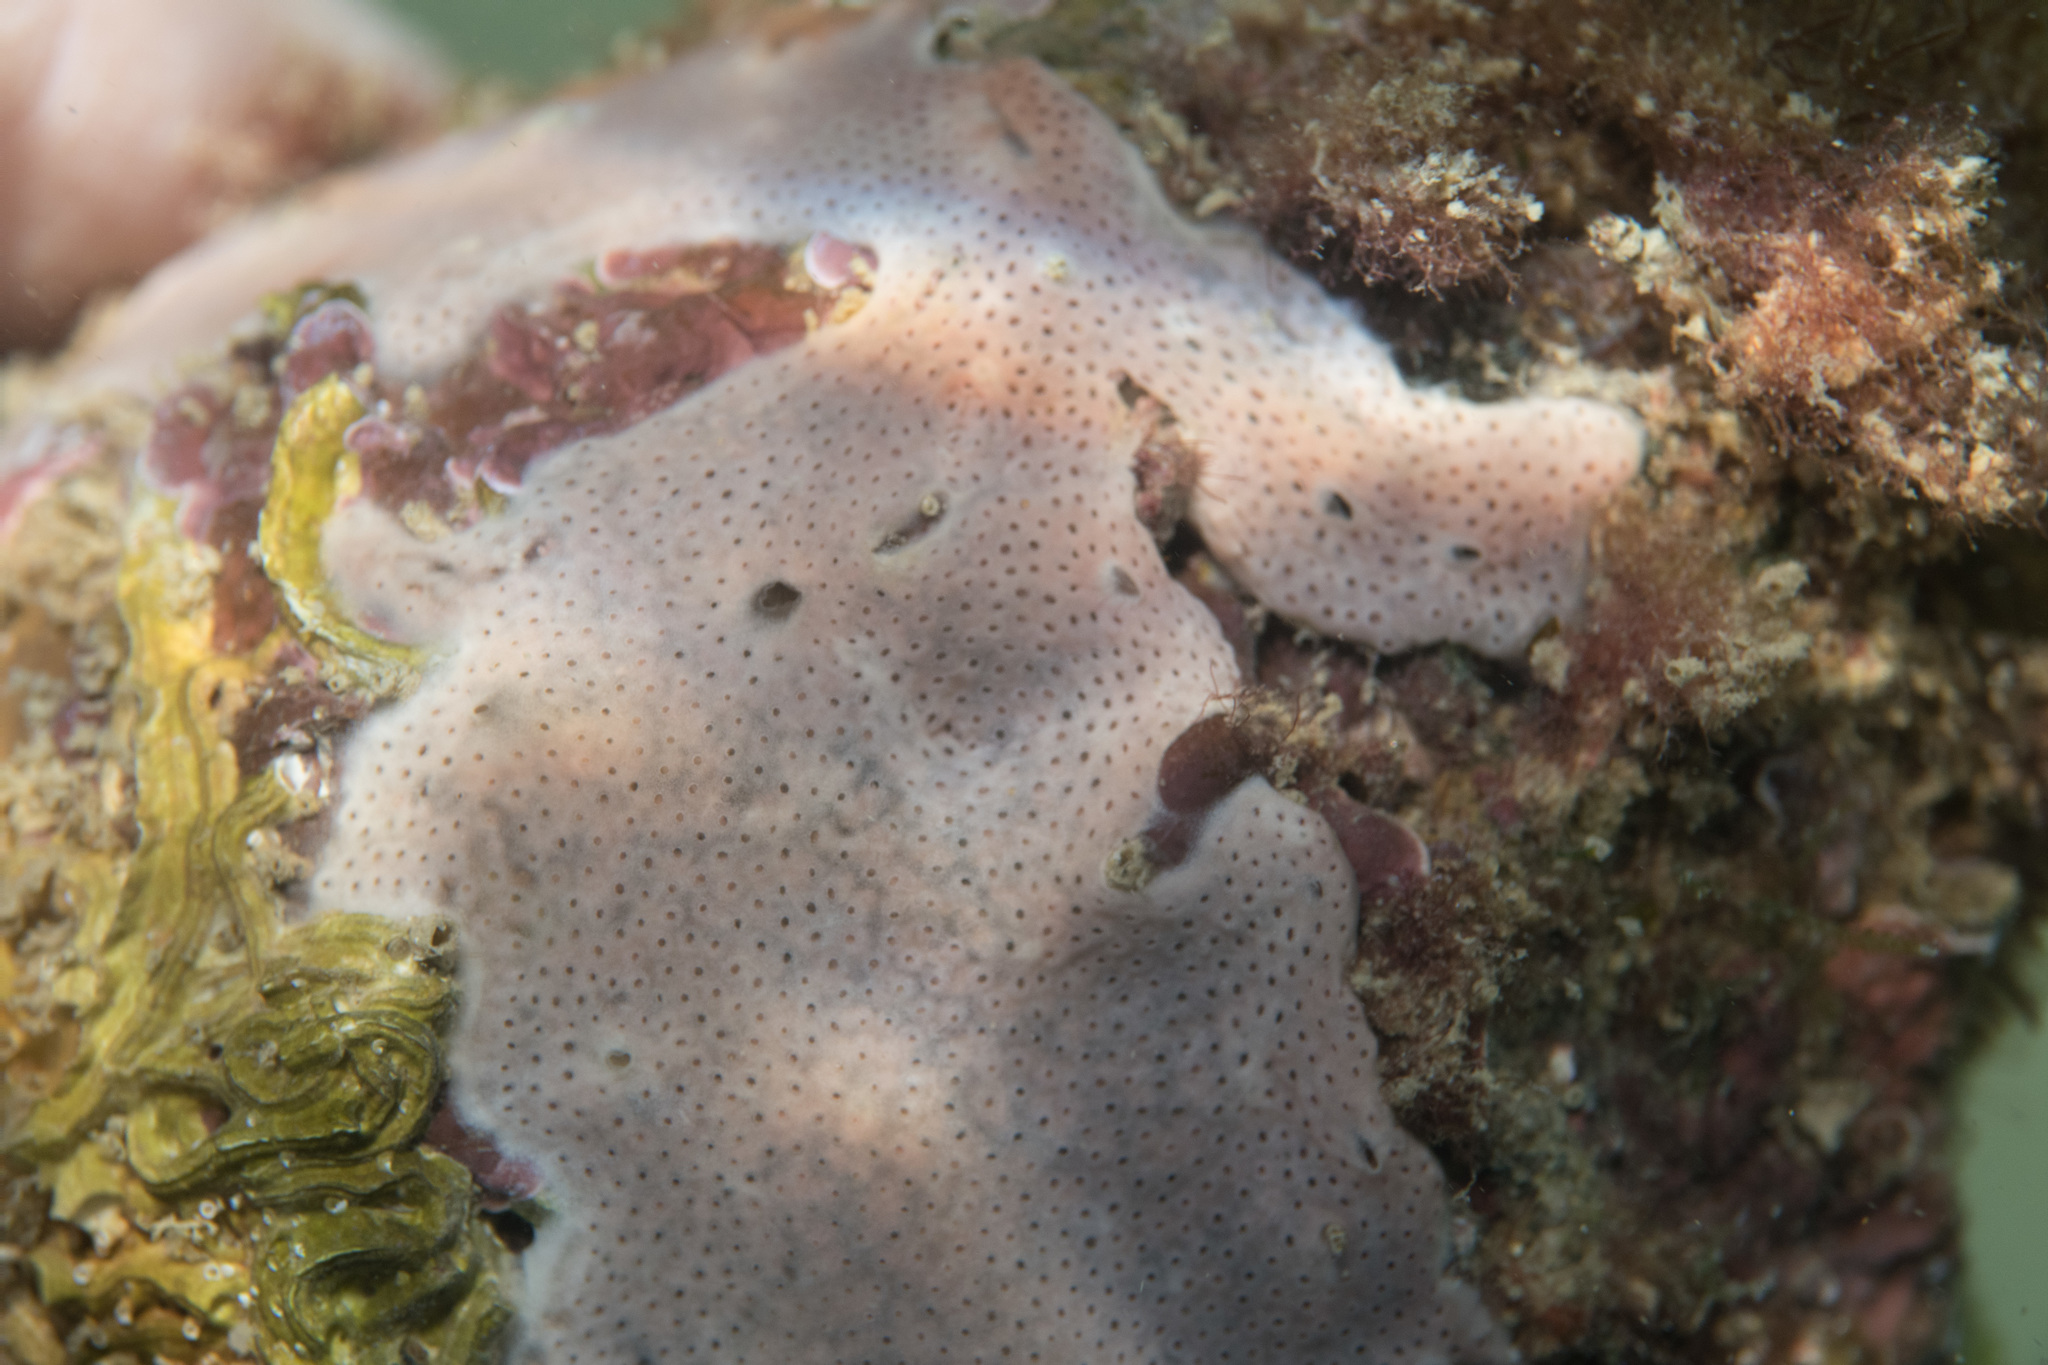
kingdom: Animalia
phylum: Chordata
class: Ascidiacea
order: Aplousobranchia
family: Didemnidae
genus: Lissoclinum
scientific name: Lissoclinum perforatum
